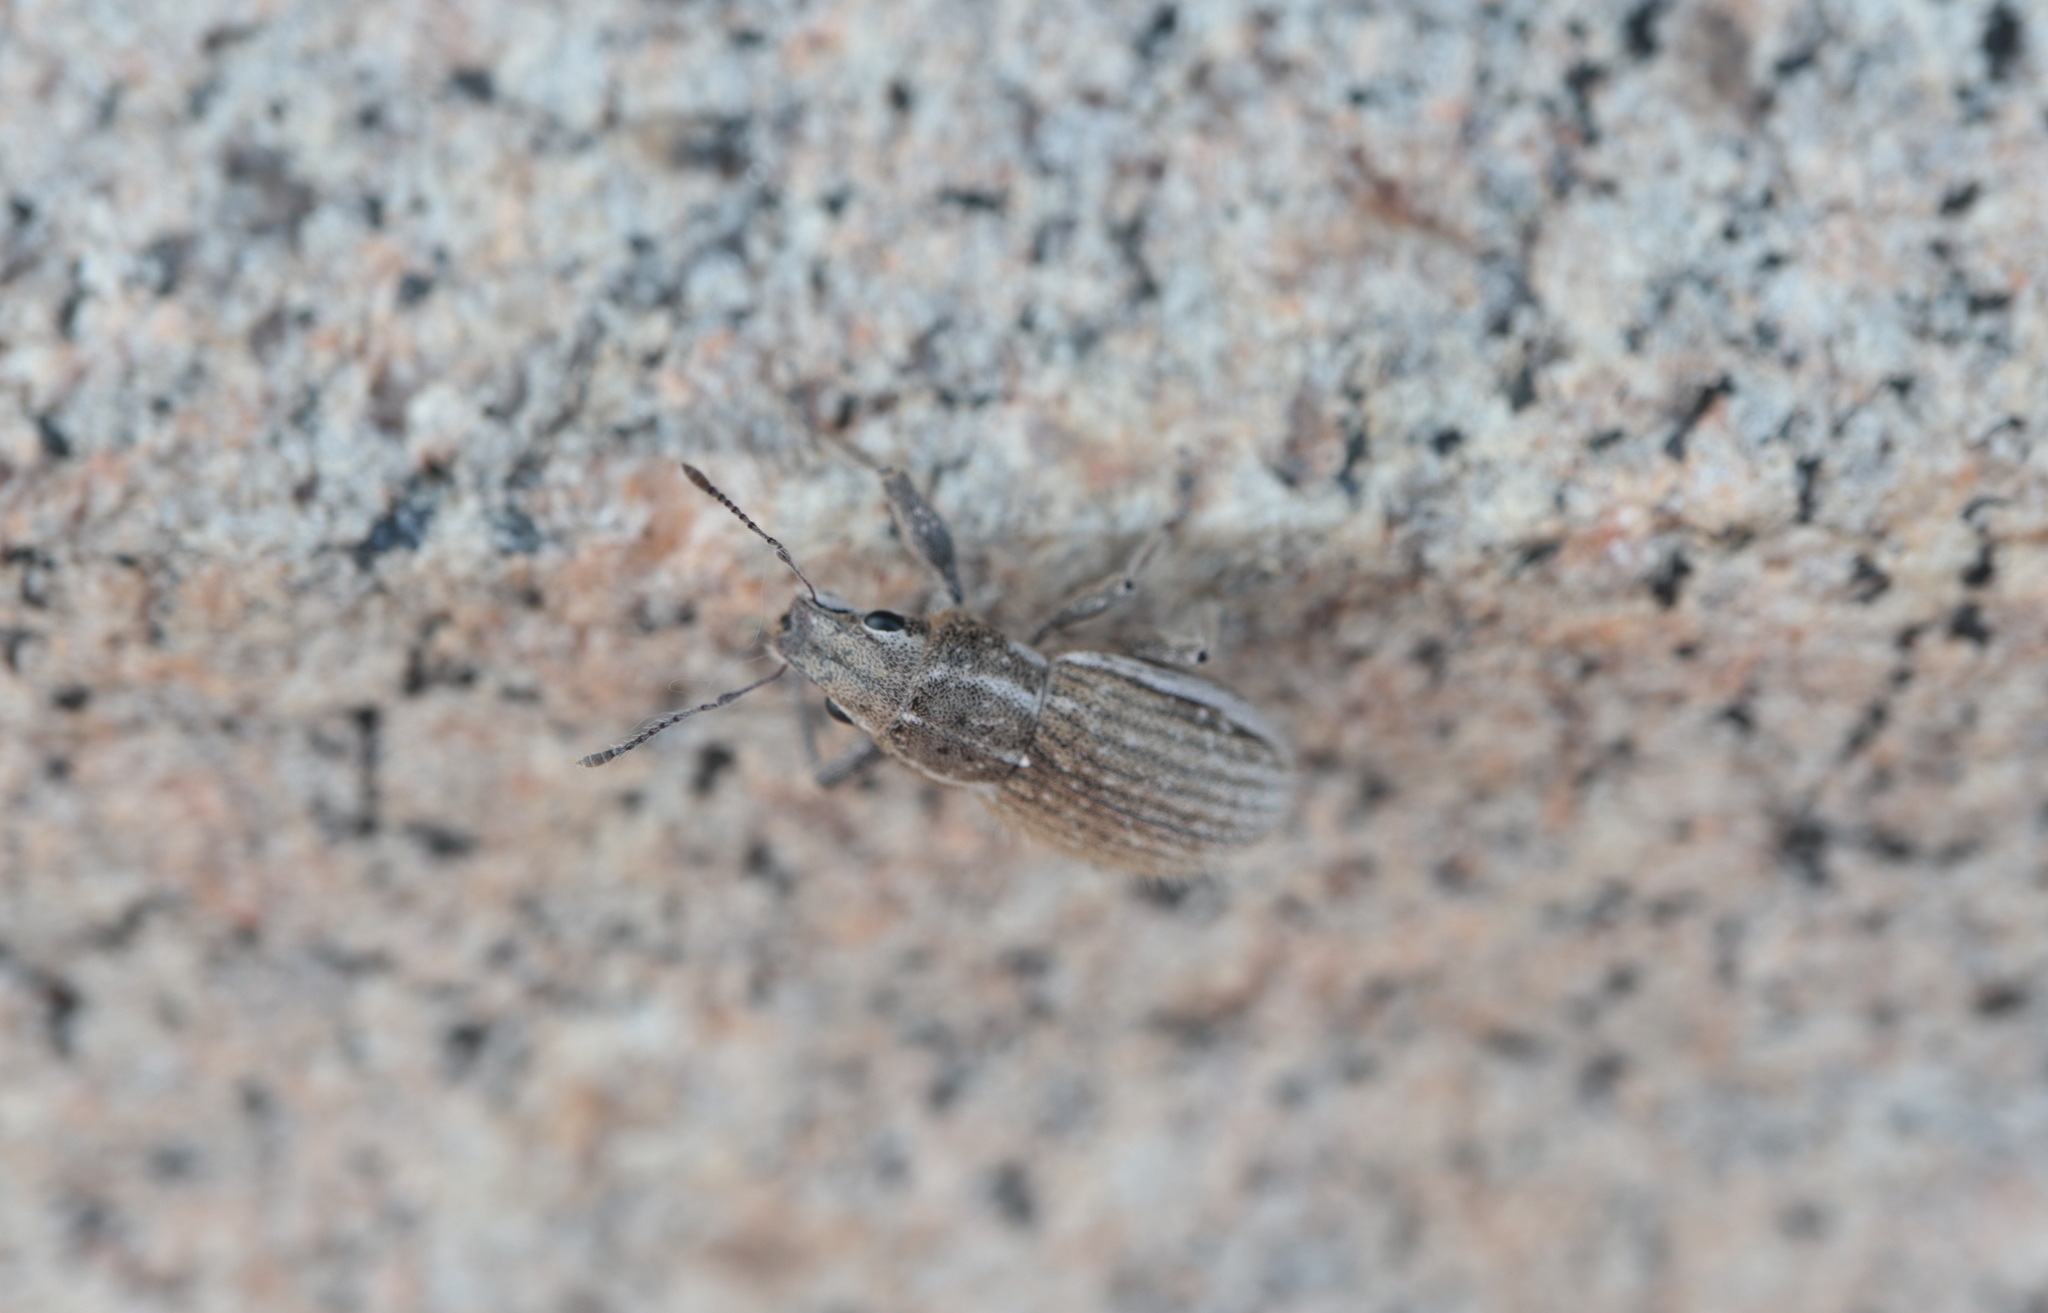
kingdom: Animalia
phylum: Arthropoda
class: Insecta
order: Coleoptera
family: Curculionidae
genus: Naupactus
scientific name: Naupactus leucoloma
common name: Whitefringed beetle
